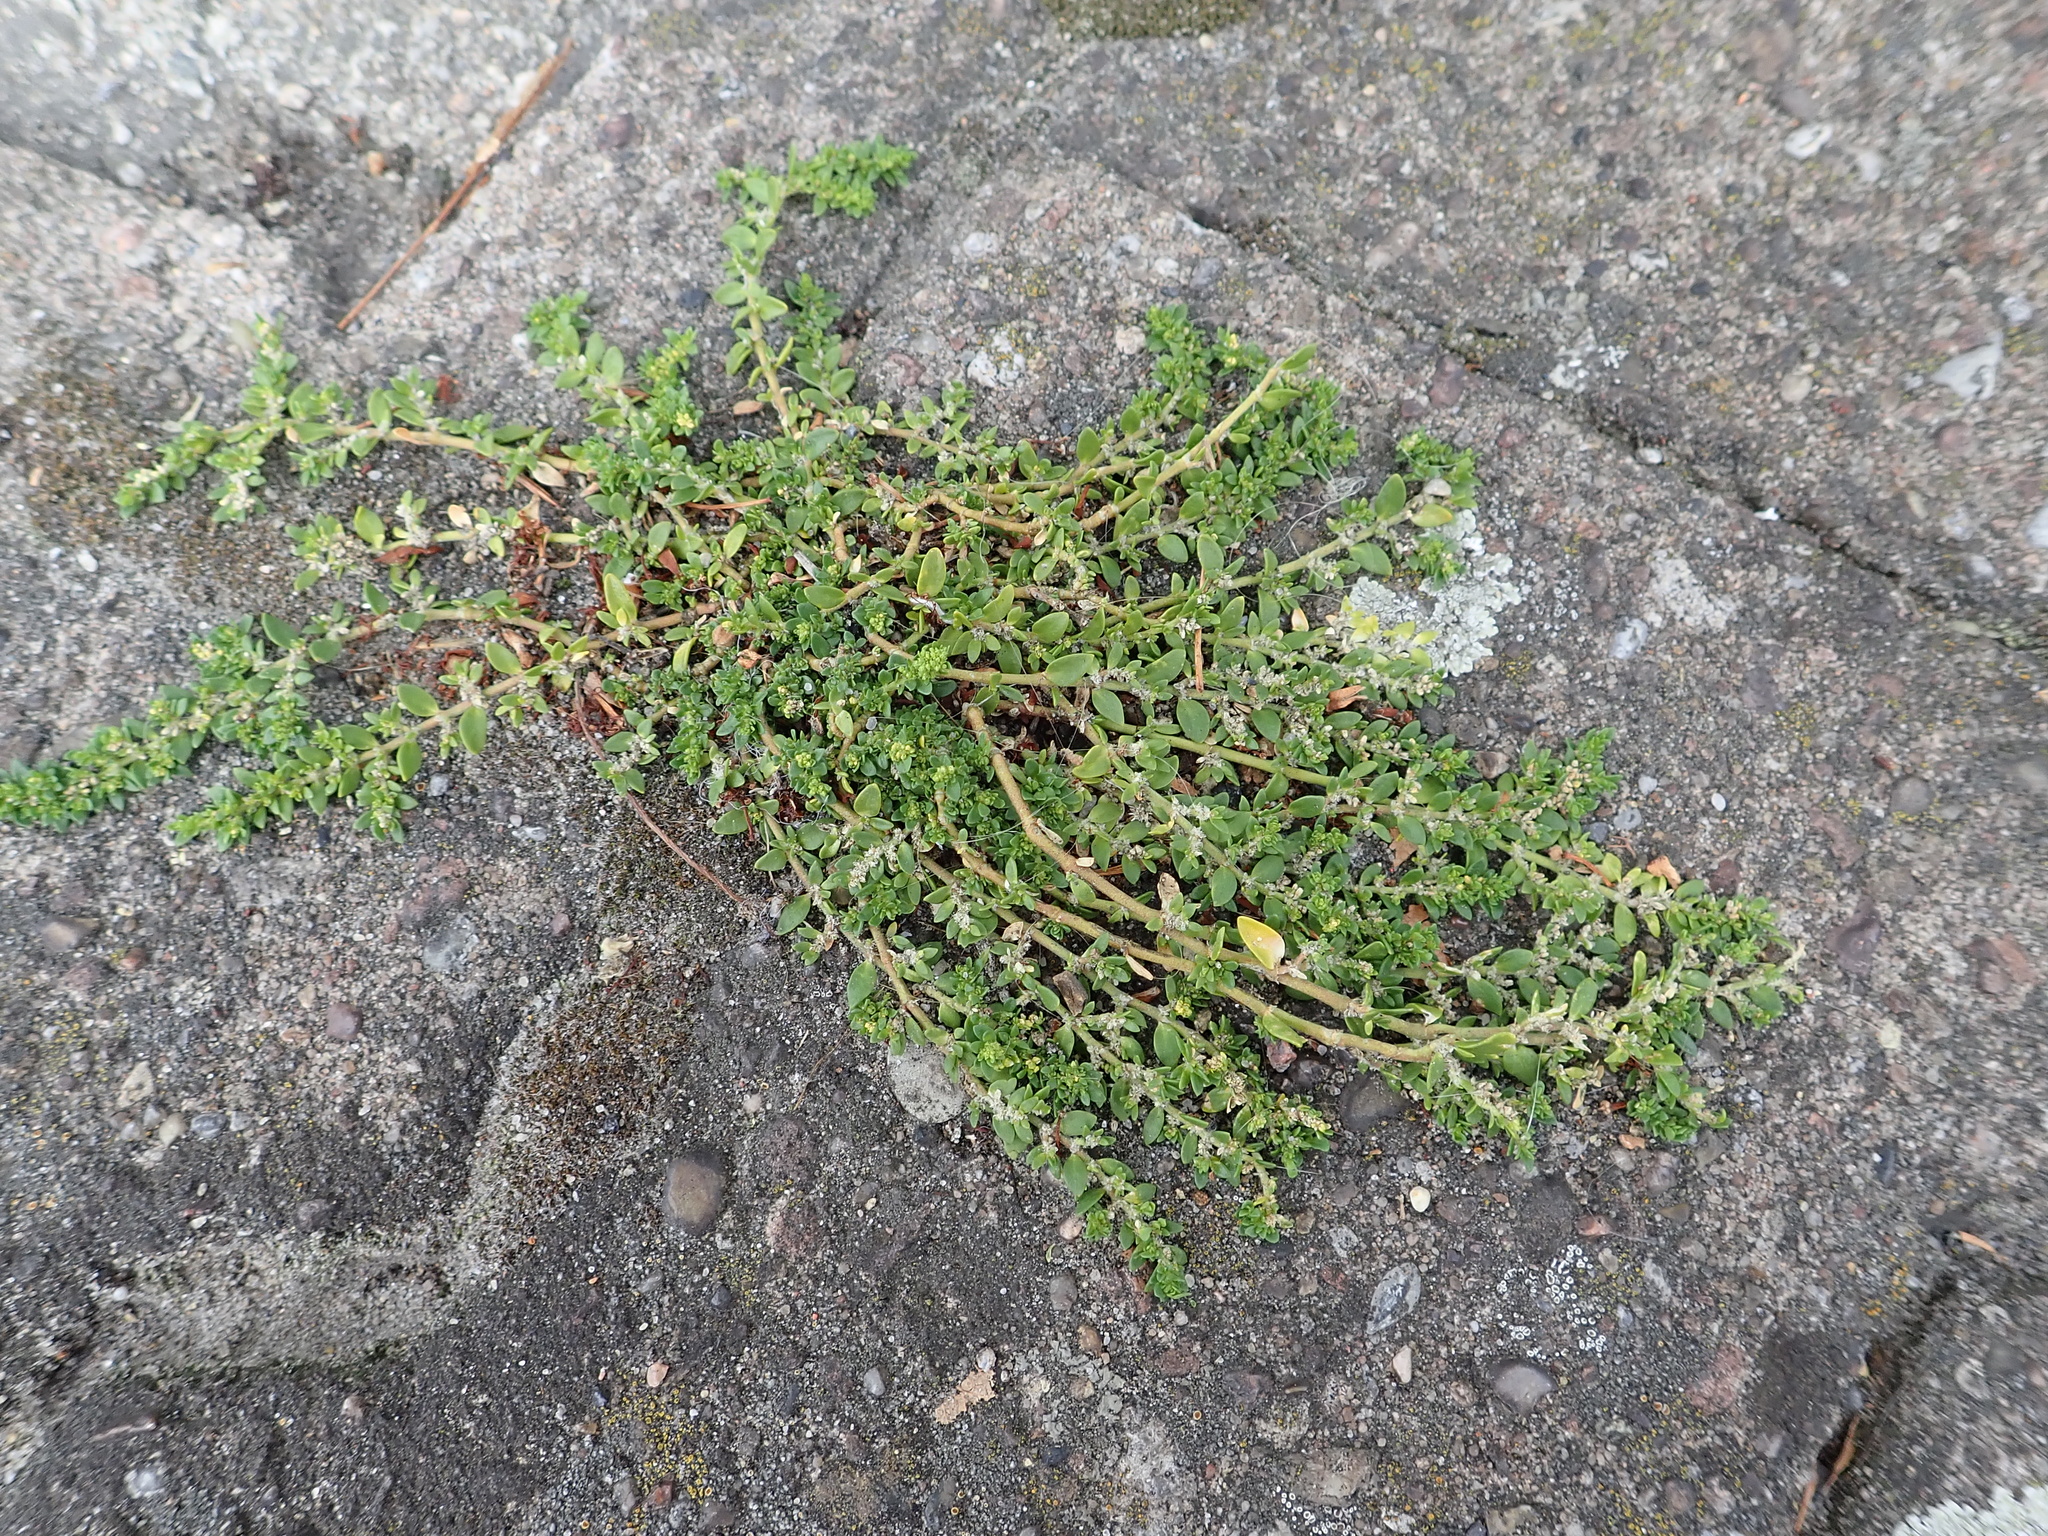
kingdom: Plantae
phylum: Tracheophyta
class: Magnoliopsida
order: Caryophyllales
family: Caryophyllaceae
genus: Herniaria
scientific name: Herniaria glabra
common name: Smooth rupturewort
